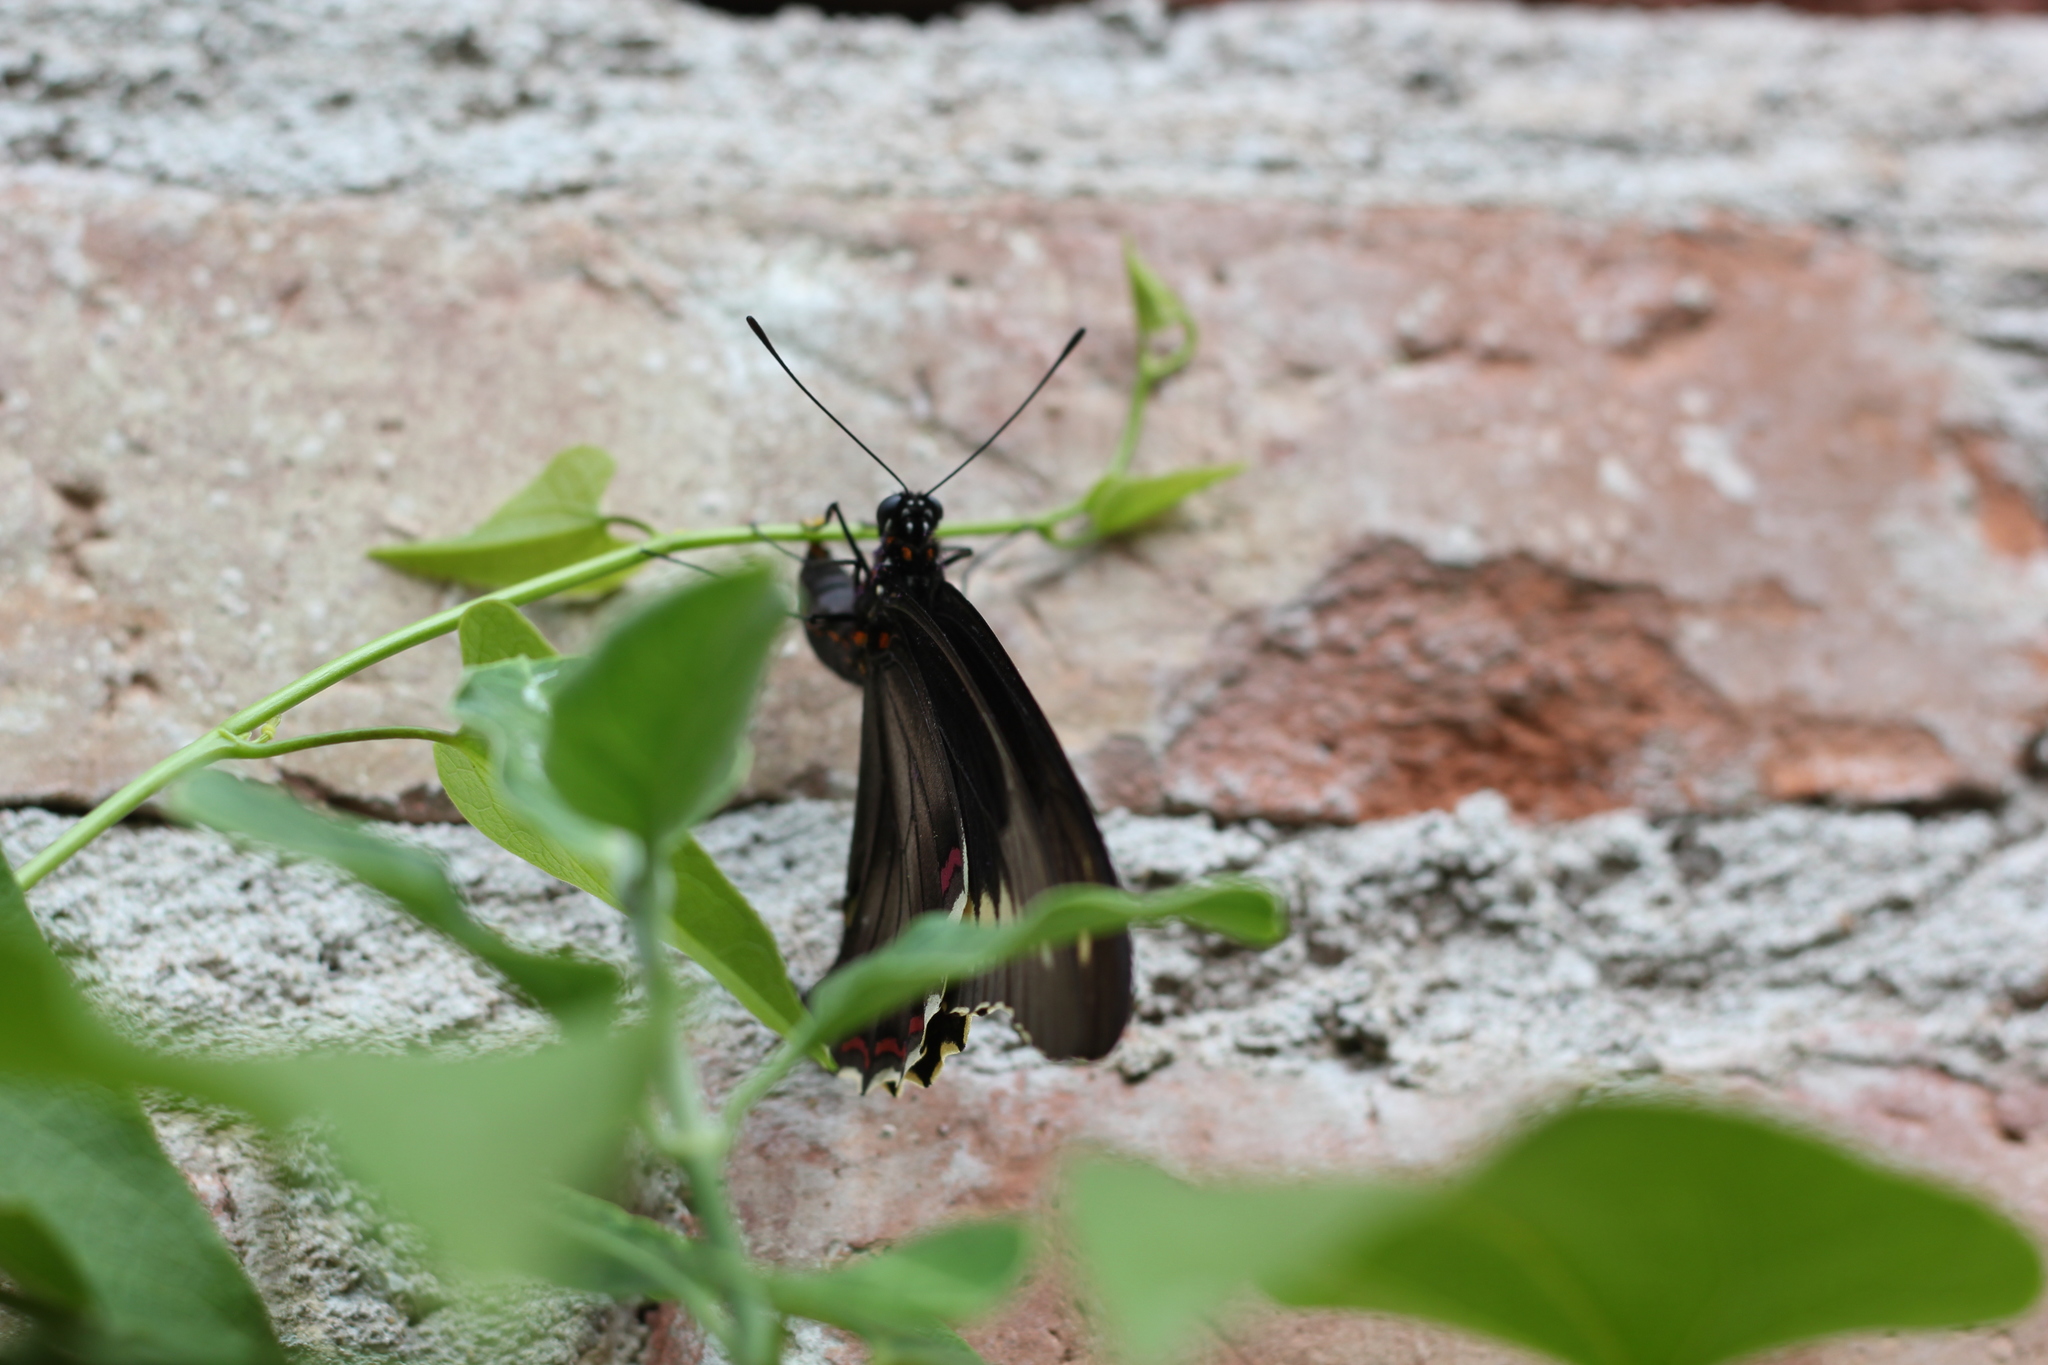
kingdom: Animalia
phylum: Arthropoda
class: Insecta
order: Lepidoptera
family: Papilionidae
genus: Battus
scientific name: Battus polydamas
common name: Polydamas swallowtail
